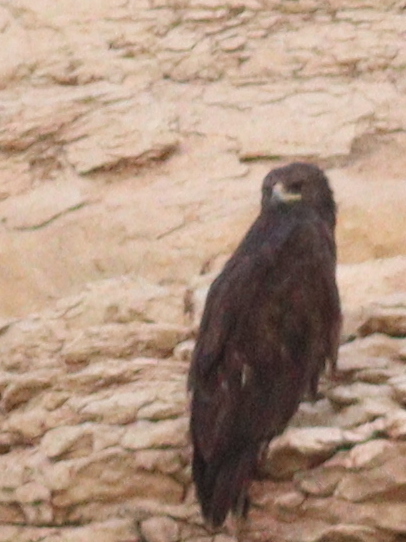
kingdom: Animalia
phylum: Chordata
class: Aves
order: Accipitriformes
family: Accipitridae
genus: Aquila
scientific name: Aquila clanga
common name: Greater spotted eagle
